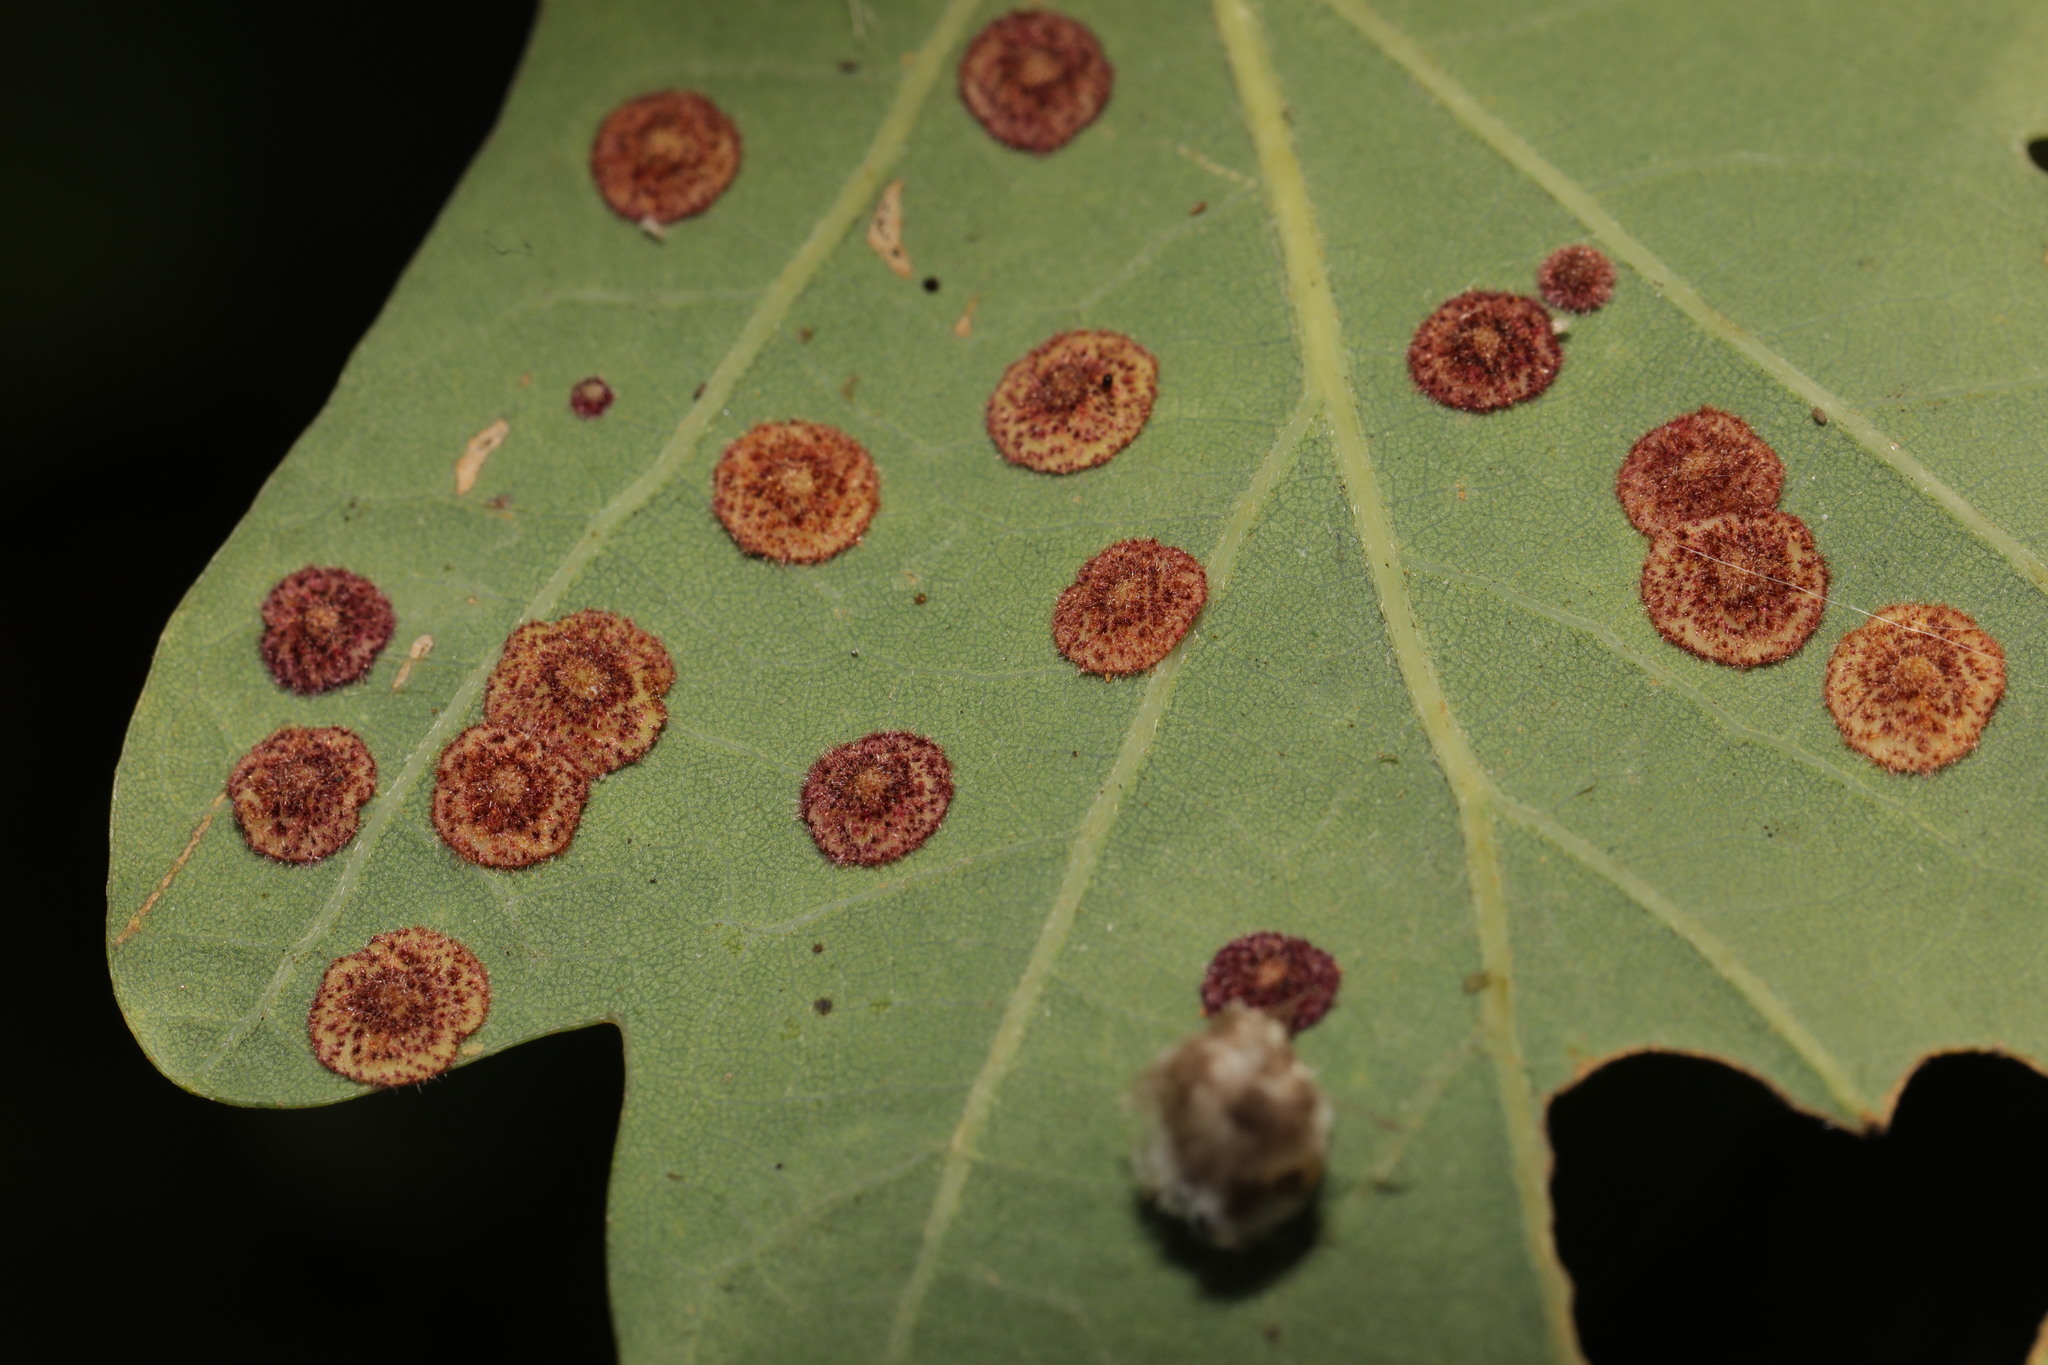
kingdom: Animalia
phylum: Arthropoda
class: Insecta
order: Hymenoptera
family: Cynipidae
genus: Neuroterus
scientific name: Neuroterus quercusbaccarum
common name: Common spangle gall
